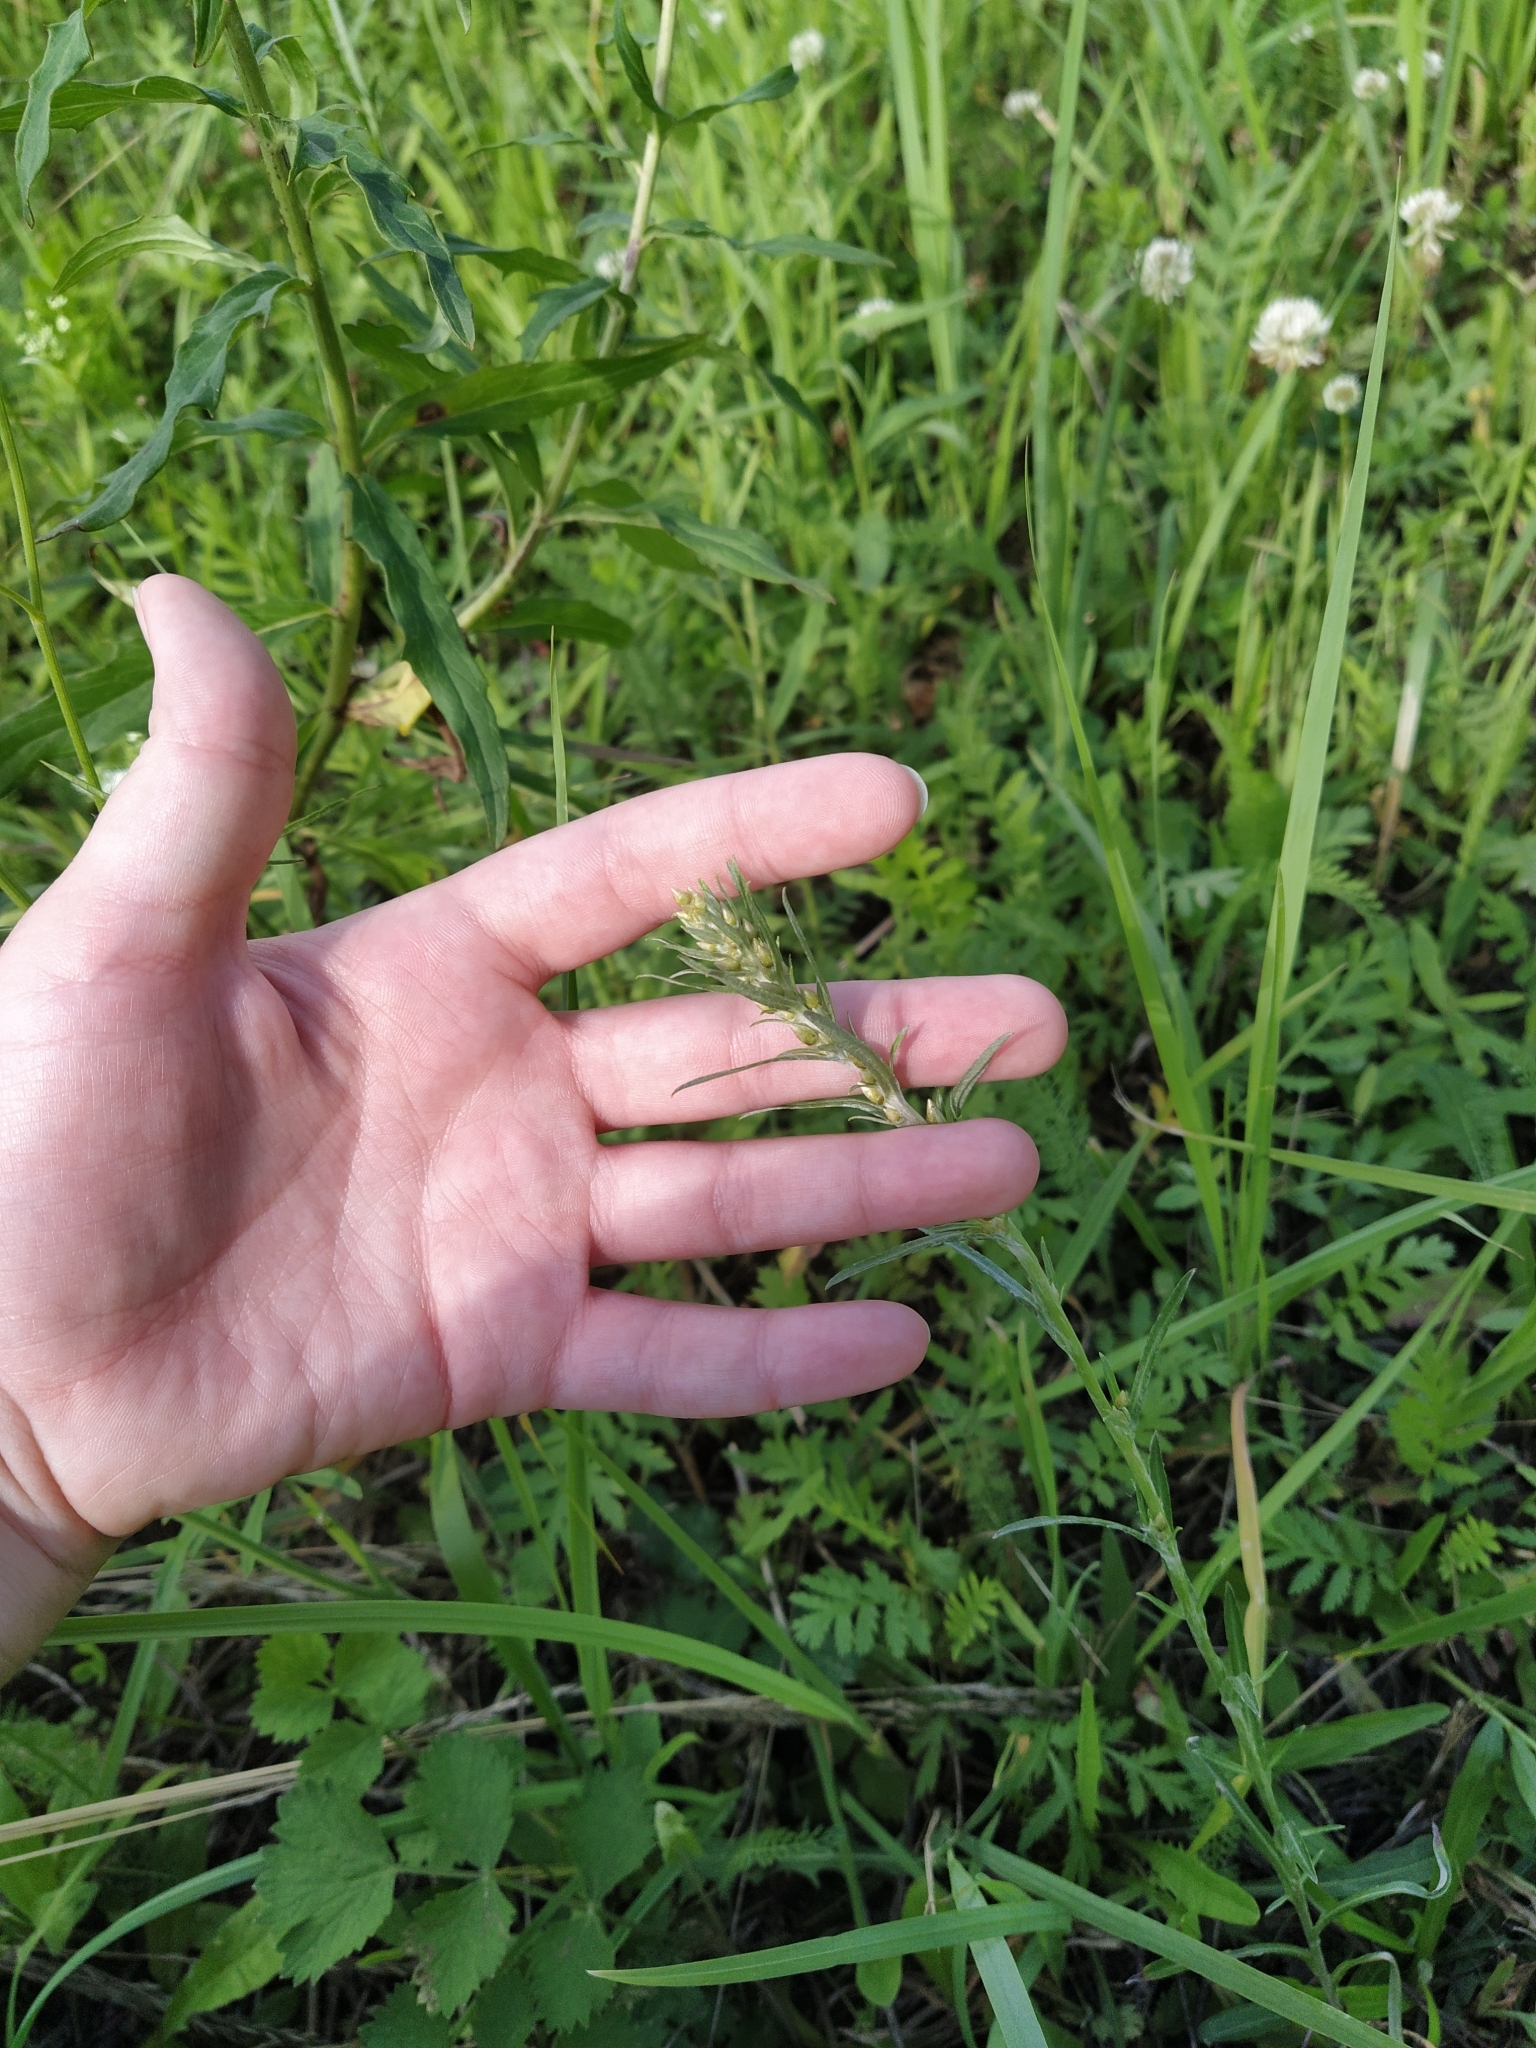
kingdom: Plantae
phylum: Tracheophyta
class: Magnoliopsida
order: Asterales
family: Asteraceae
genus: Omalotheca
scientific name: Omalotheca sylvatica
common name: Heath cudweed
